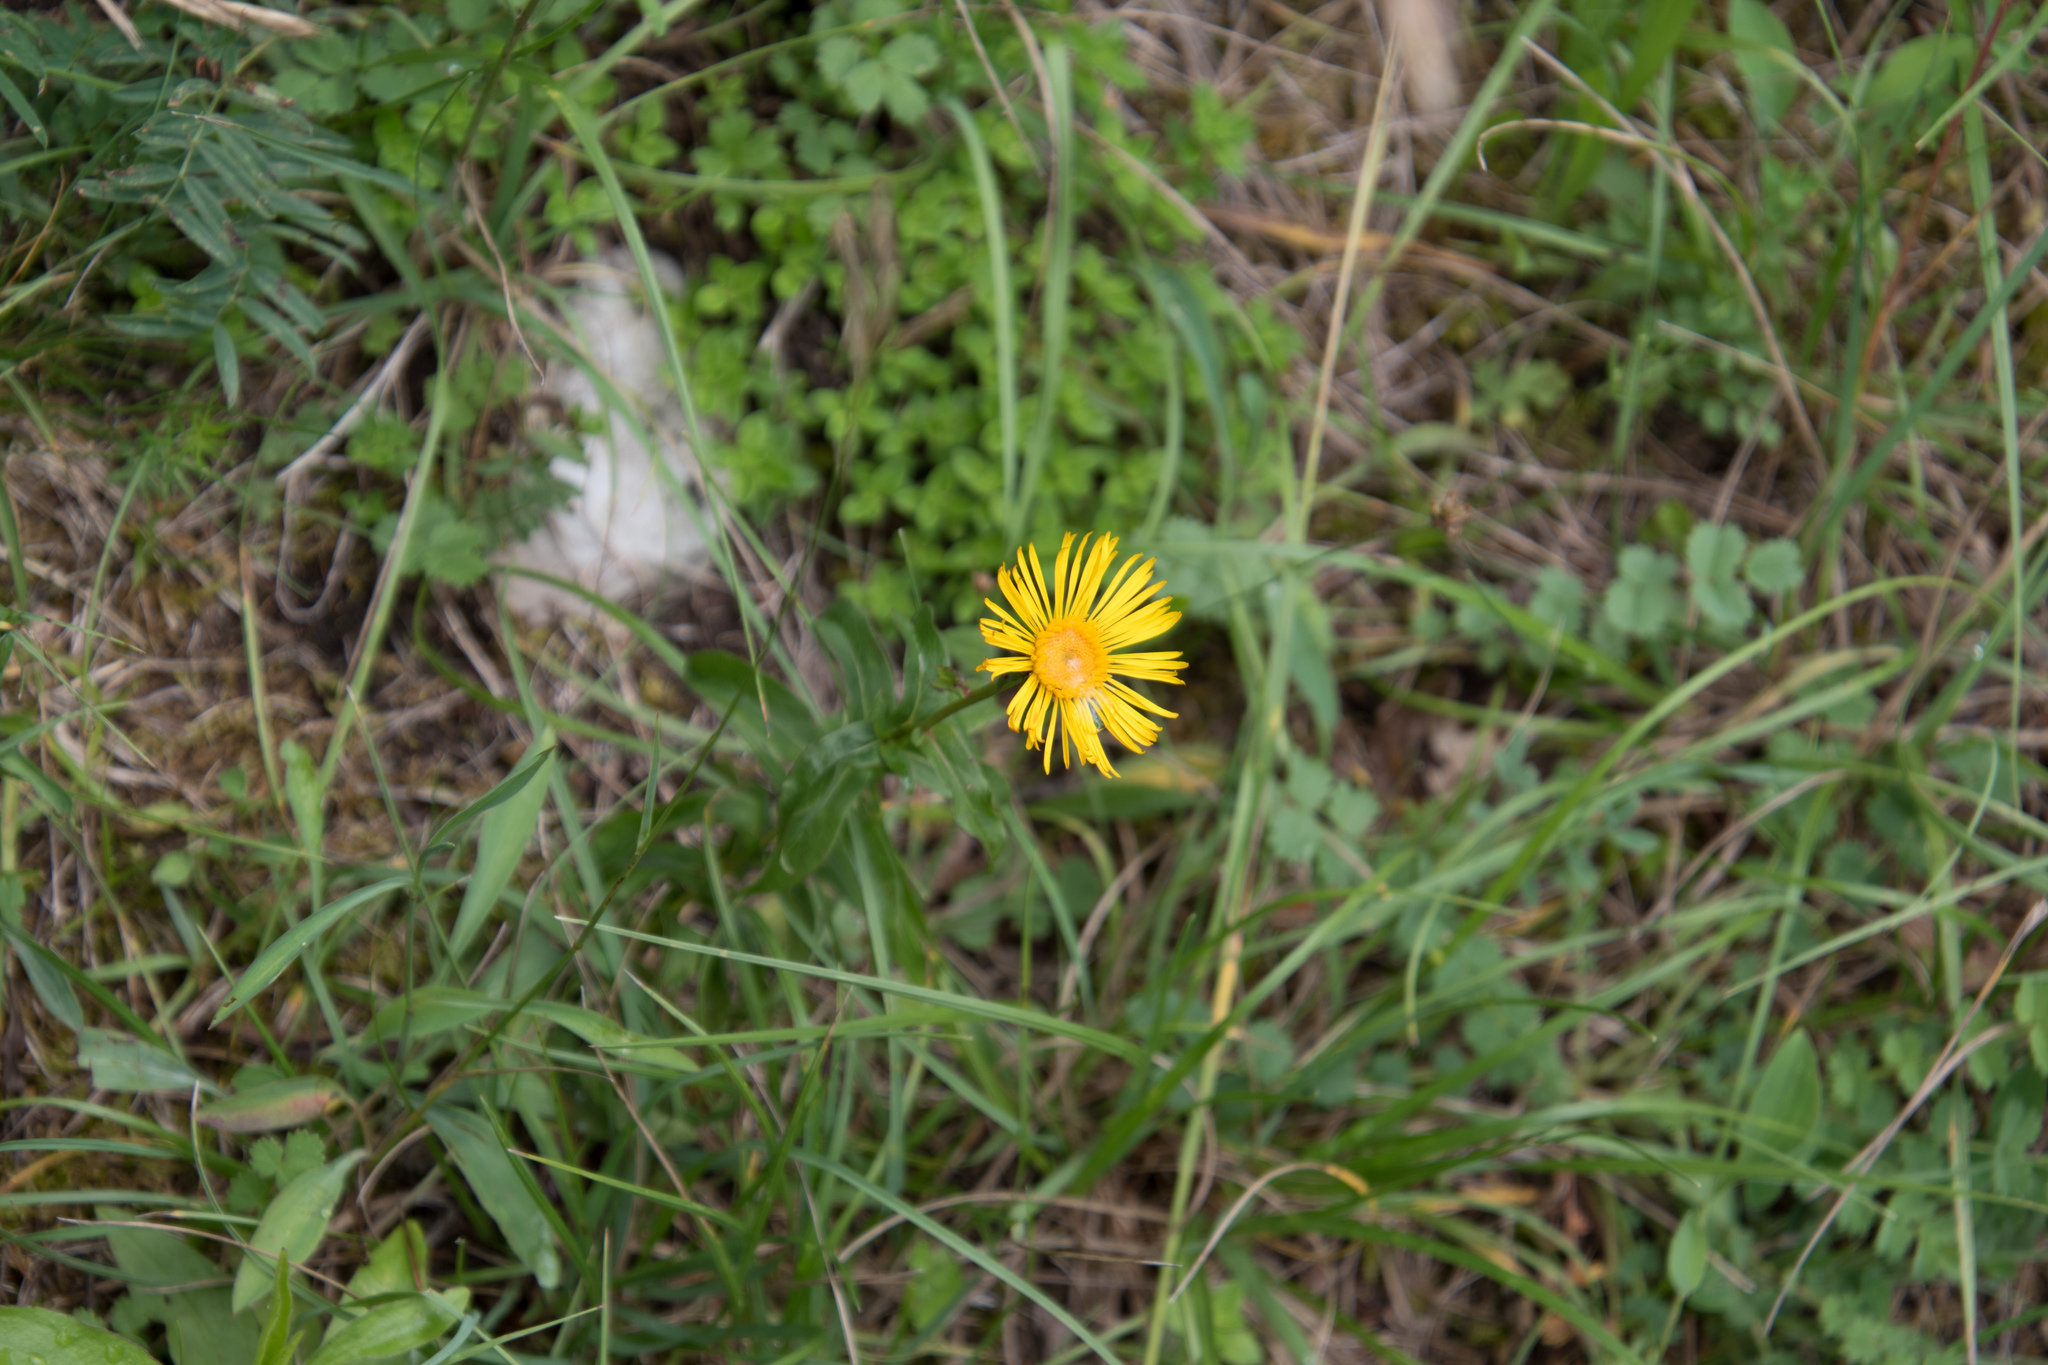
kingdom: Plantae
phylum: Tracheophyta
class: Magnoliopsida
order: Asterales
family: Asteraceae
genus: Pentanema
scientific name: Pentanema salicinum
